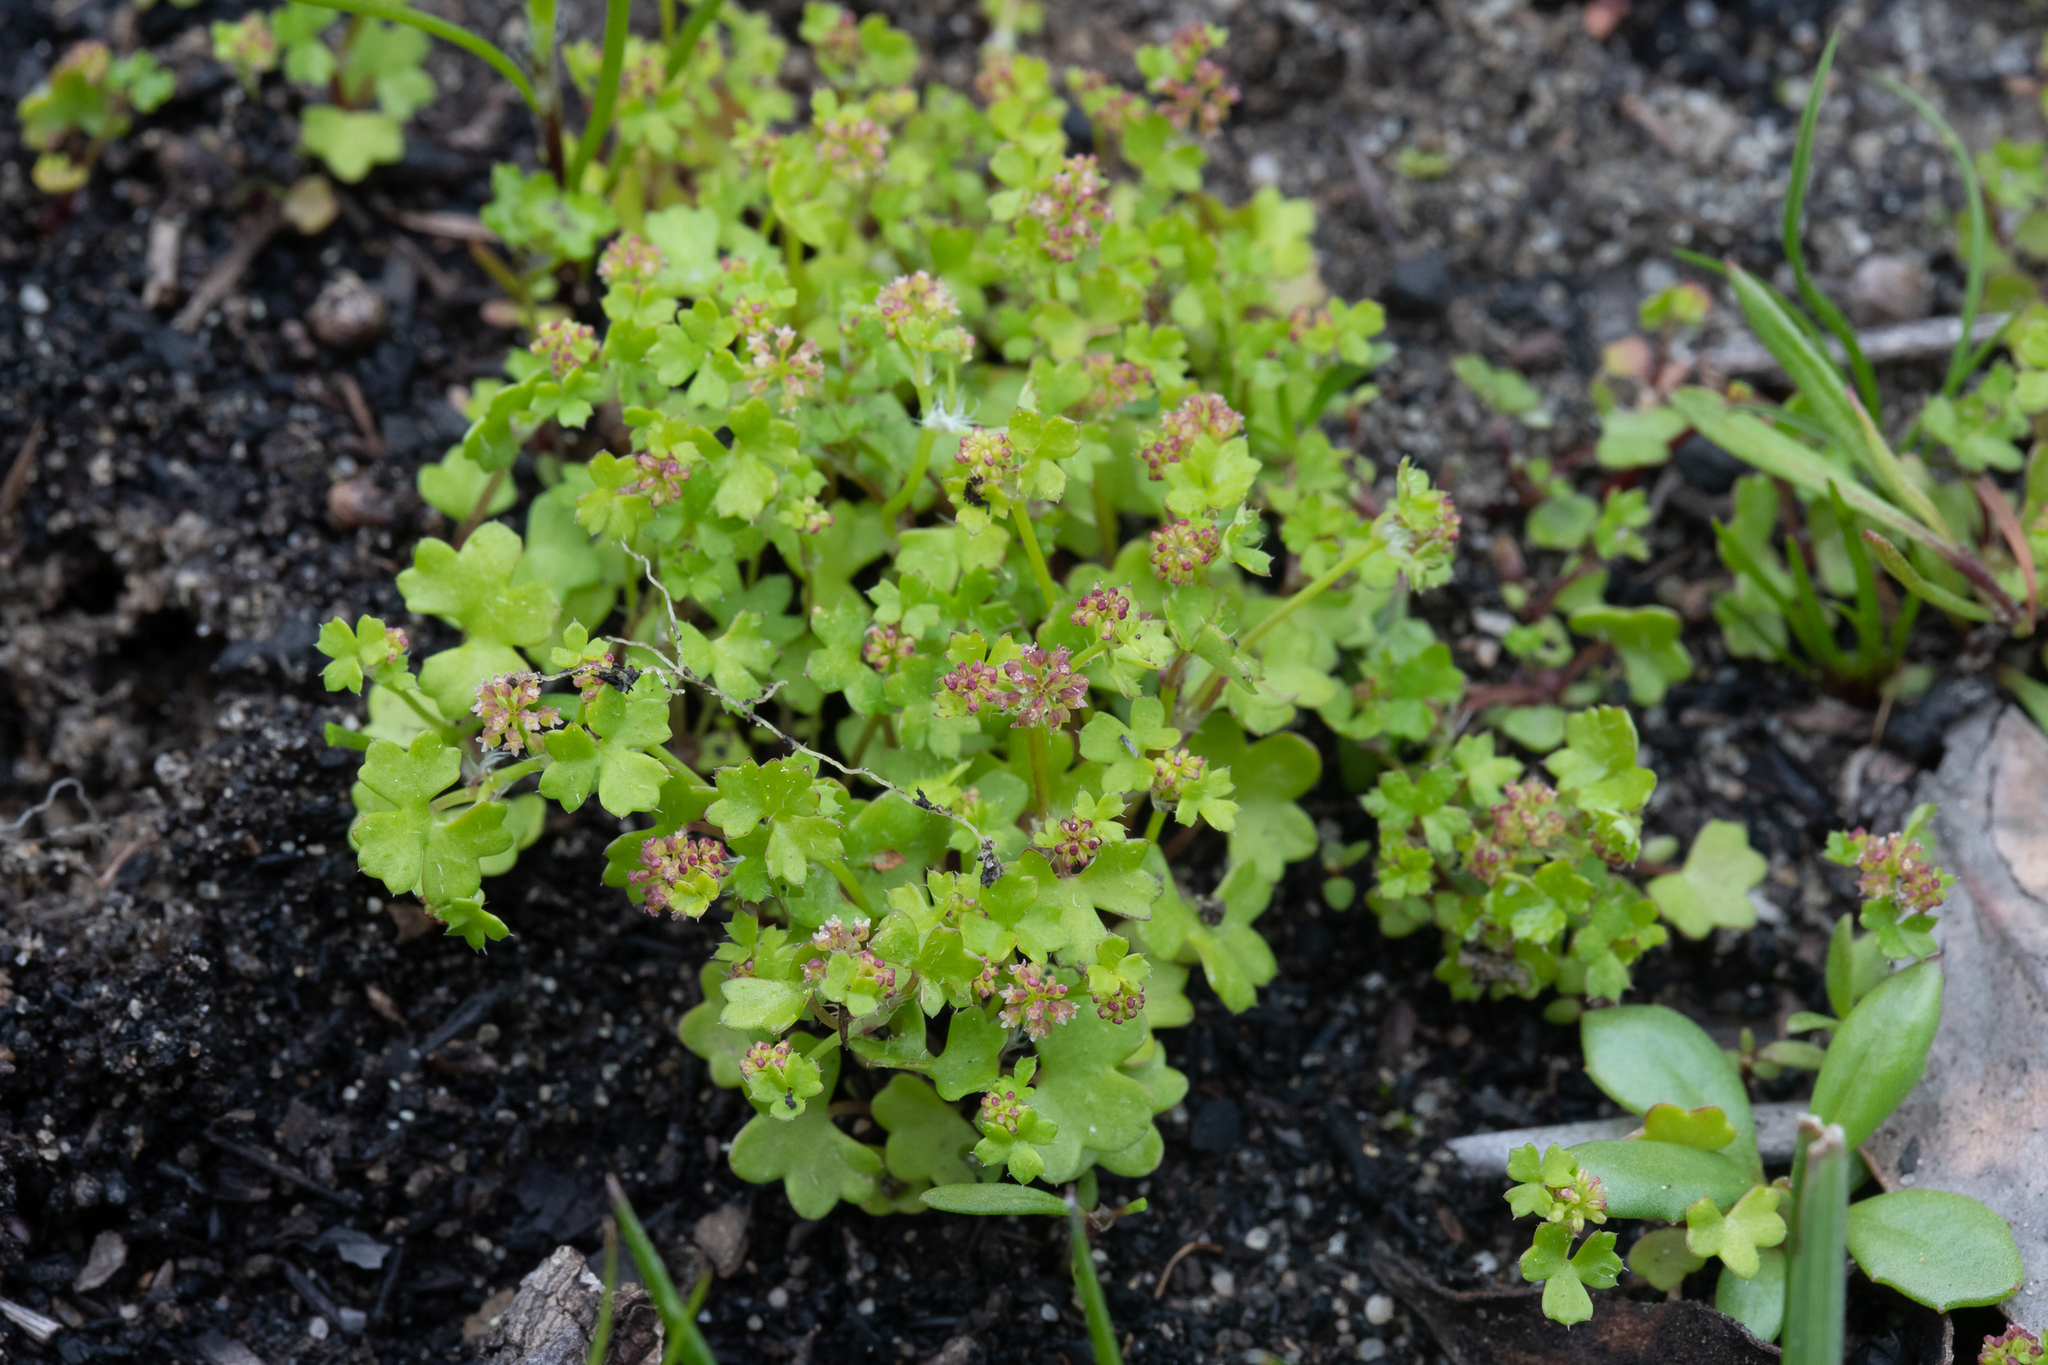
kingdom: Plantae
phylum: Tracheophyta
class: Magnoliopsida
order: Apiales
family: Araliaceae
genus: Hydrocotyle
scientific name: Hydrocotyle callicarpa
